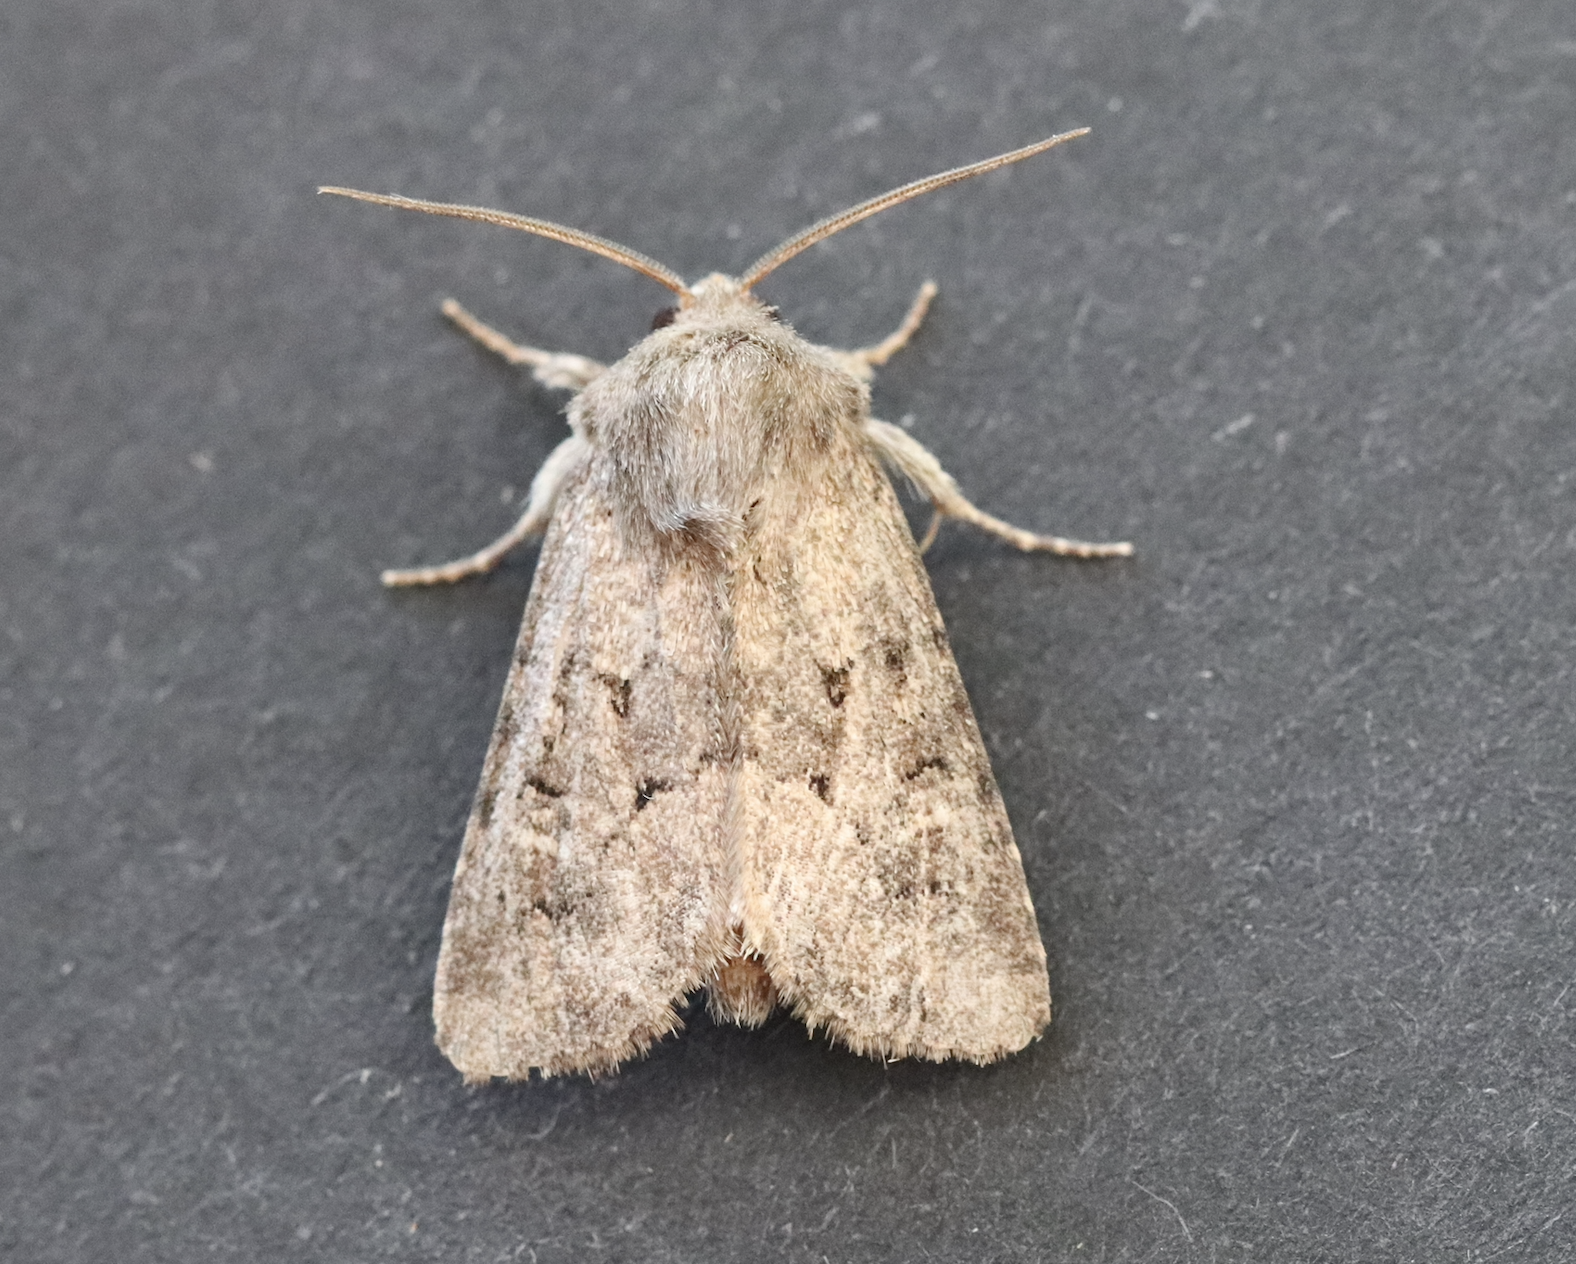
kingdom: Animalia
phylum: Arthropoda
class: Insecta
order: Lepidoptera
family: Noctuidae
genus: Luperina
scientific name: Luperina testacea
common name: Flounced rustic
